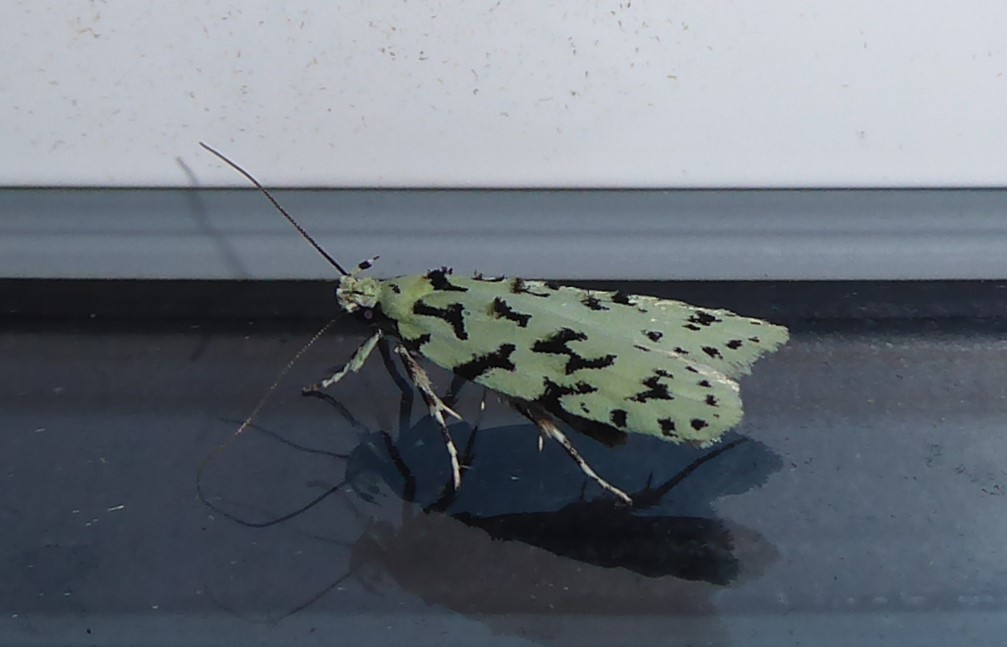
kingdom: Animalia
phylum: Arthropoda
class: Insecta
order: Lepidoptera
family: Oecophoridae
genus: Izatha
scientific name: Izatha huttoni
